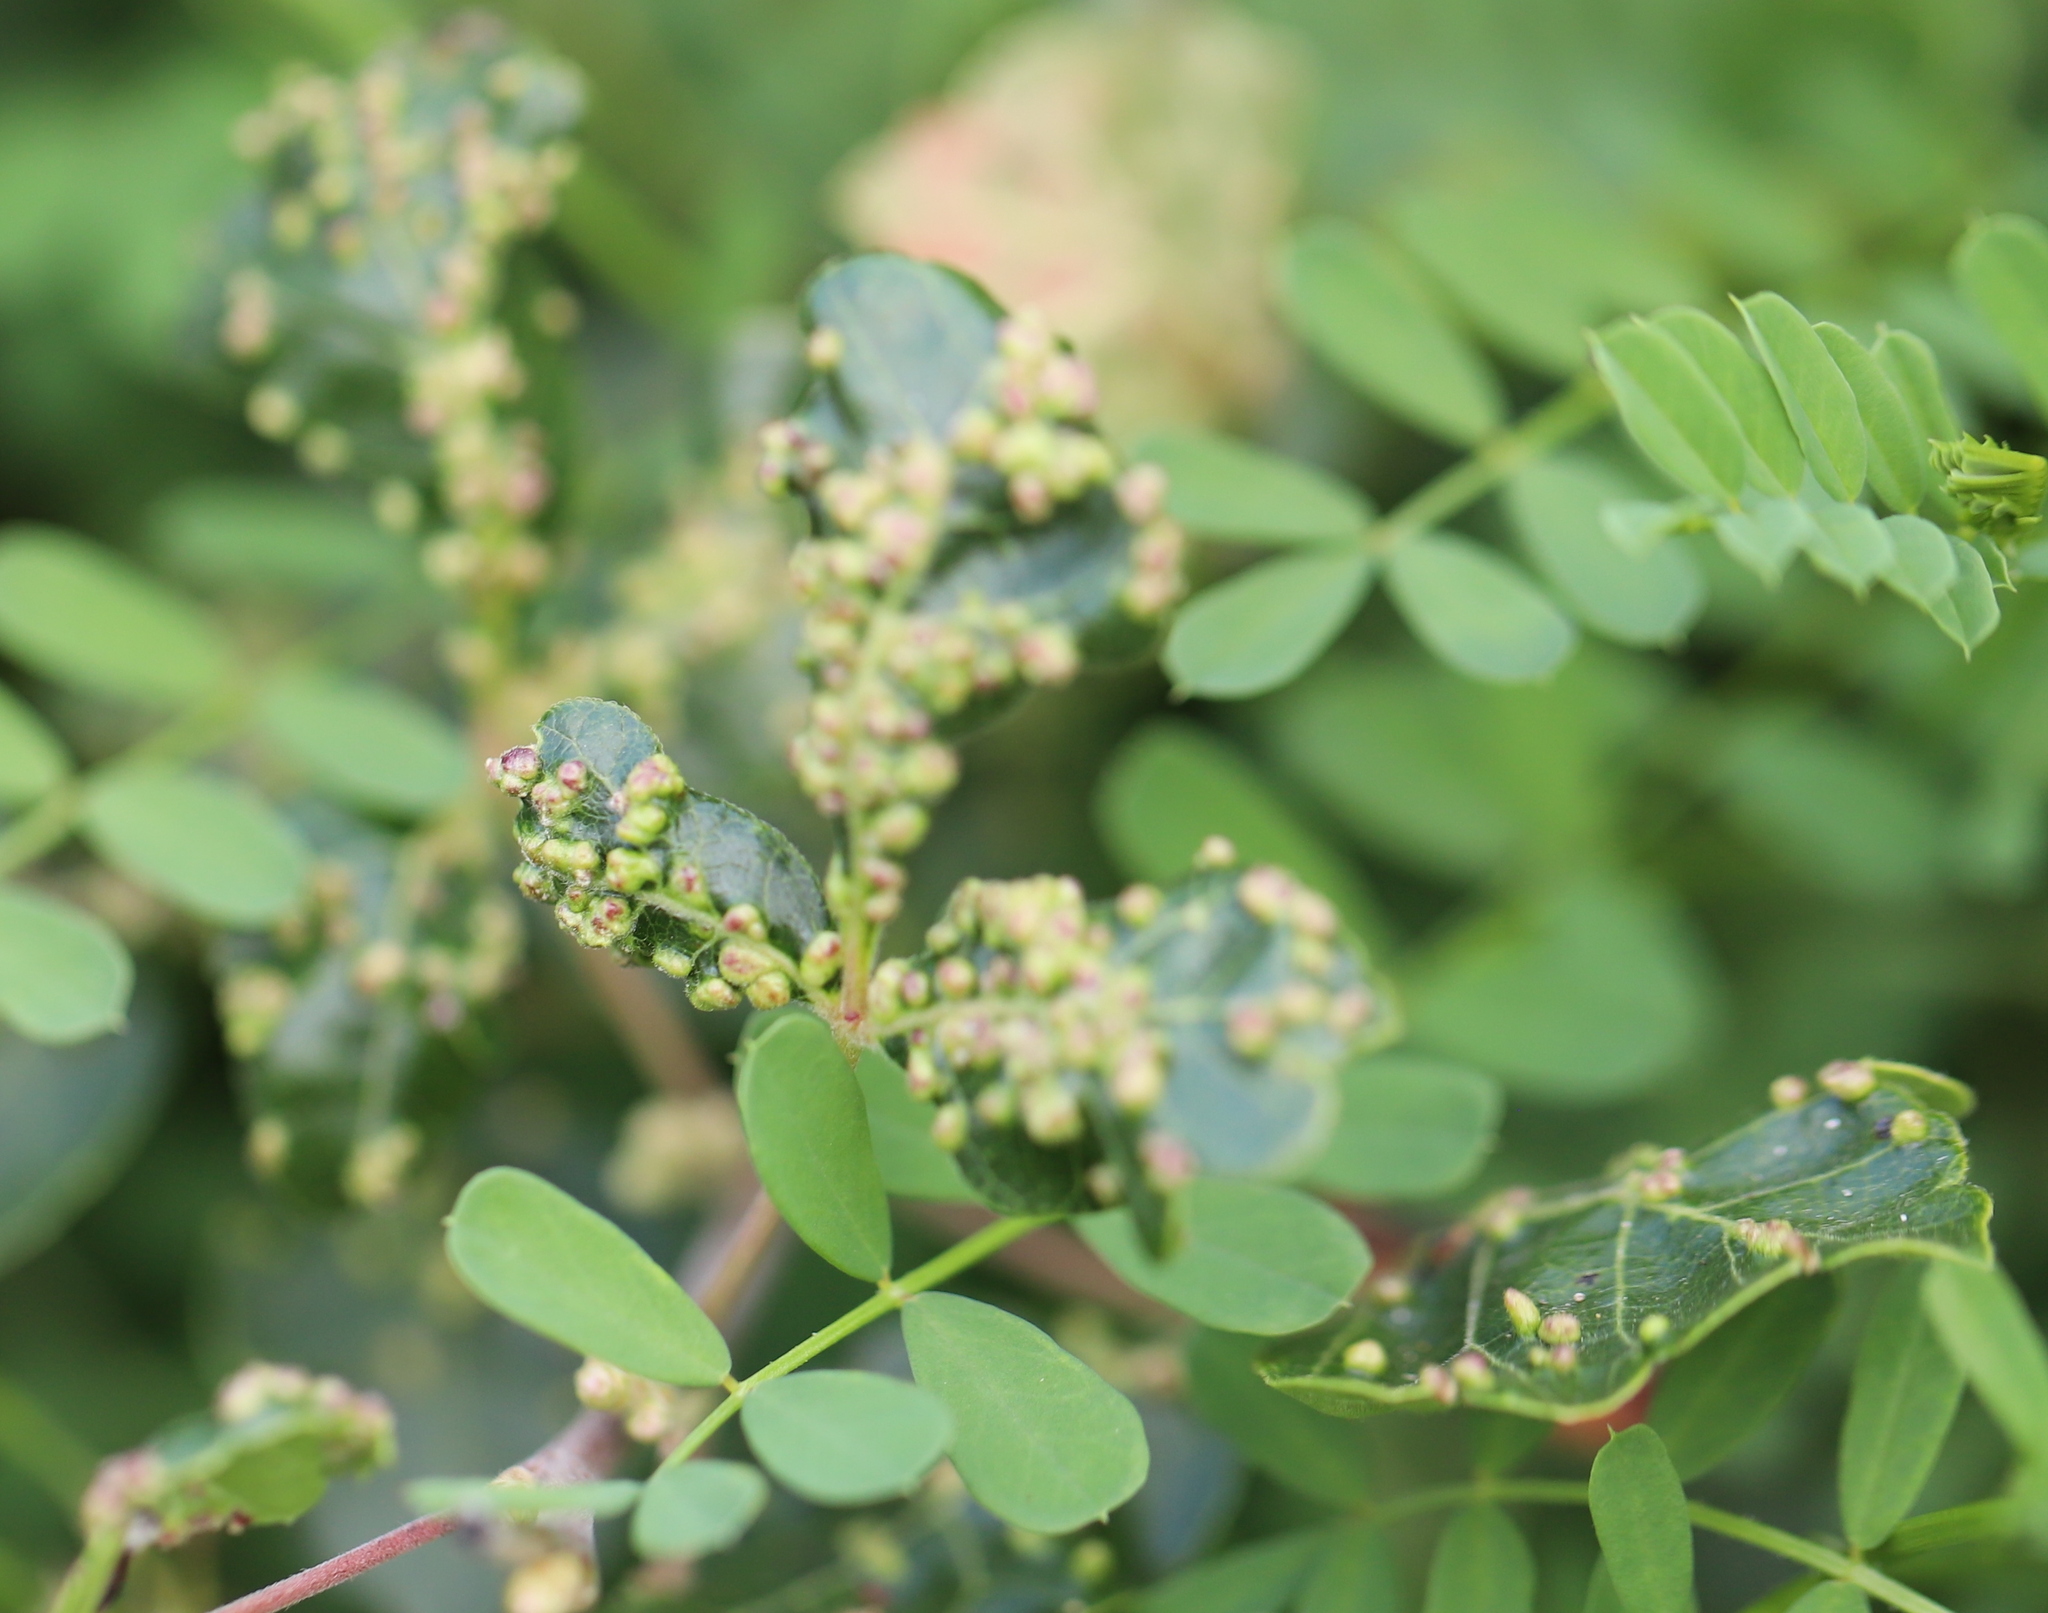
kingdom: Animalia
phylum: Arthropoda
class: Arachnida
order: Trombidiformes
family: Eriophyidae
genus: Aculops
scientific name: Aculops
